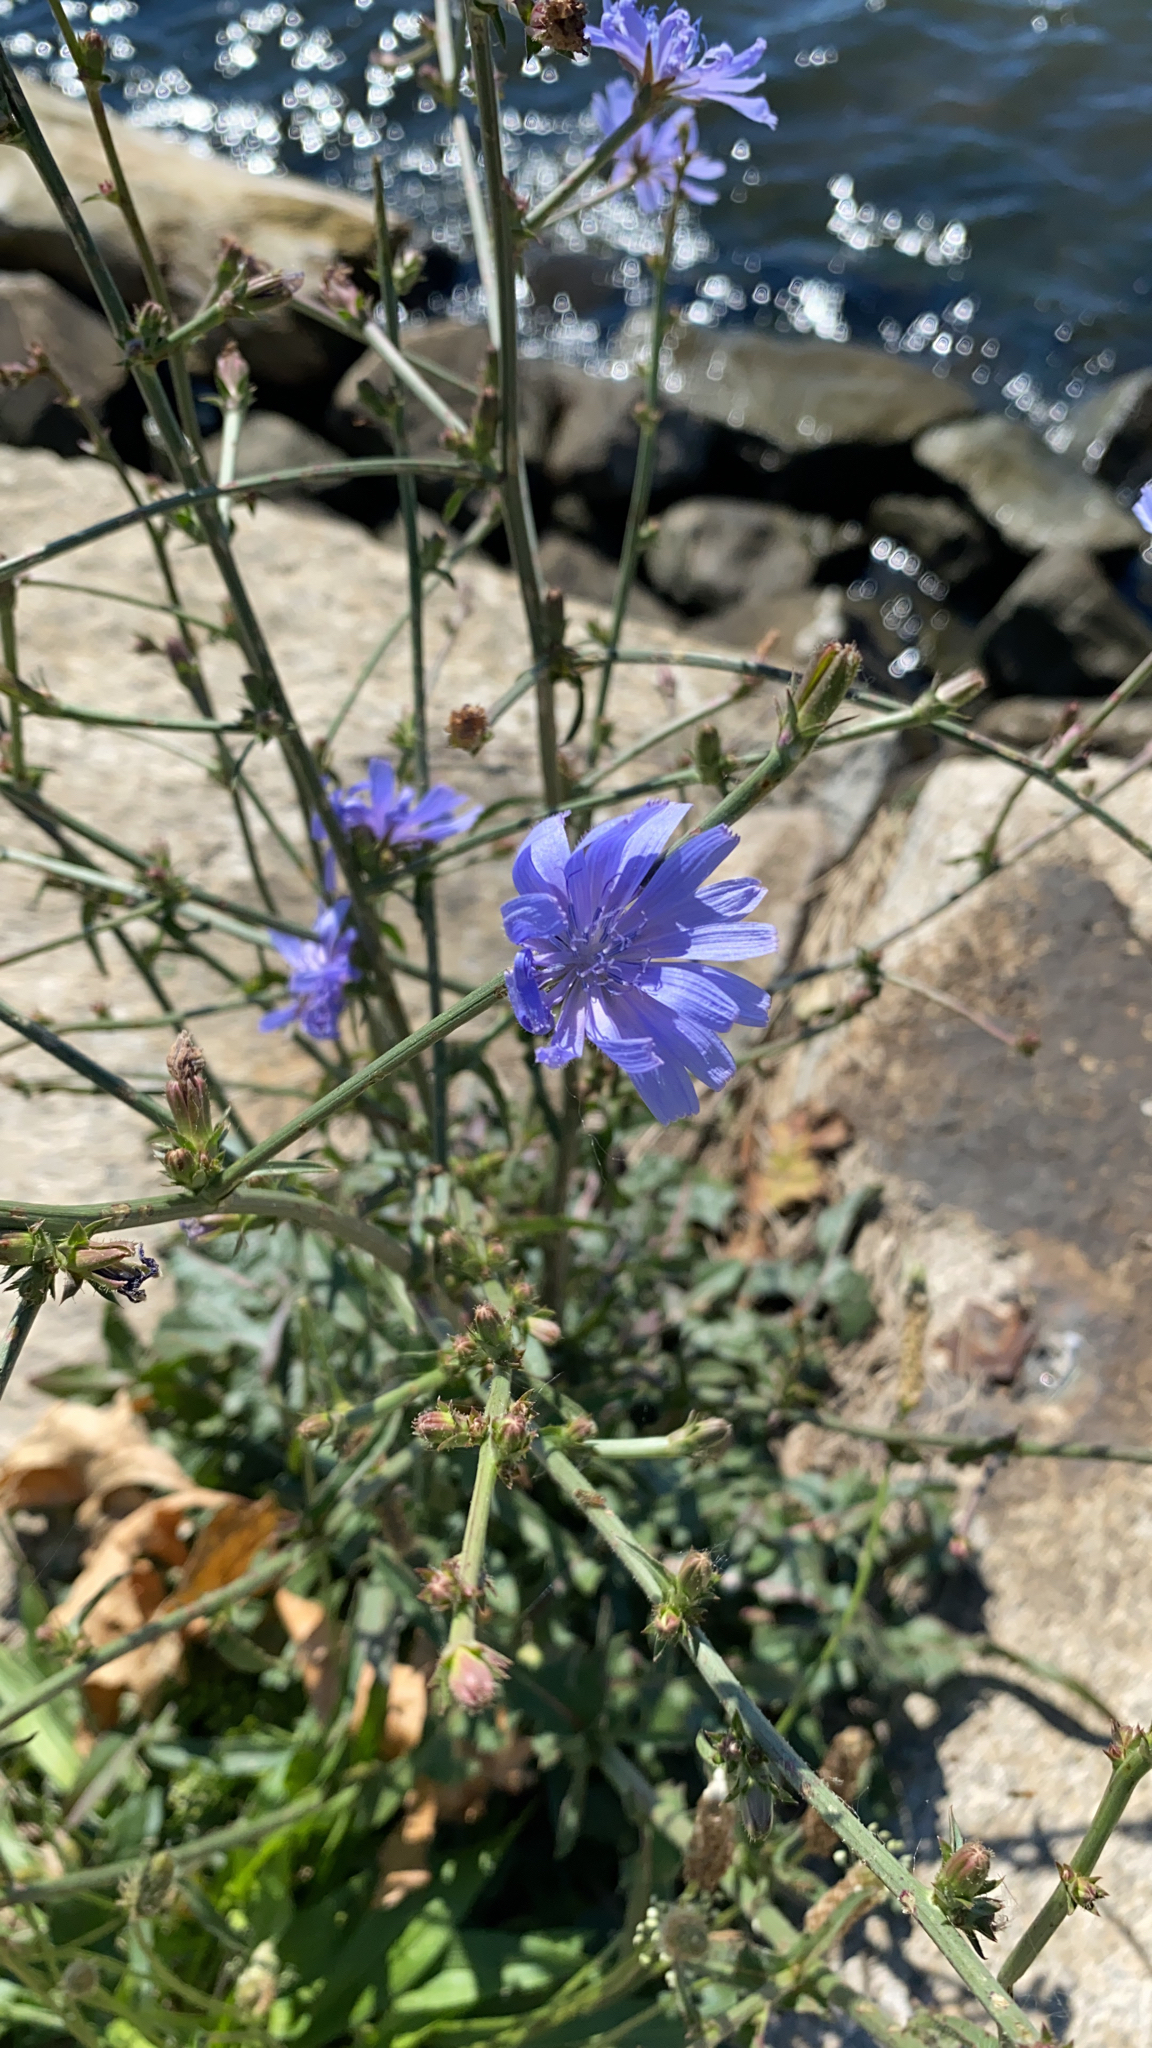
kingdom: Plantae
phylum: Tracheophyta
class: Magnoliopsida
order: Asterales
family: Asteraceae
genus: Cichorium
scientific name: Cichorium intybus
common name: Chicory
